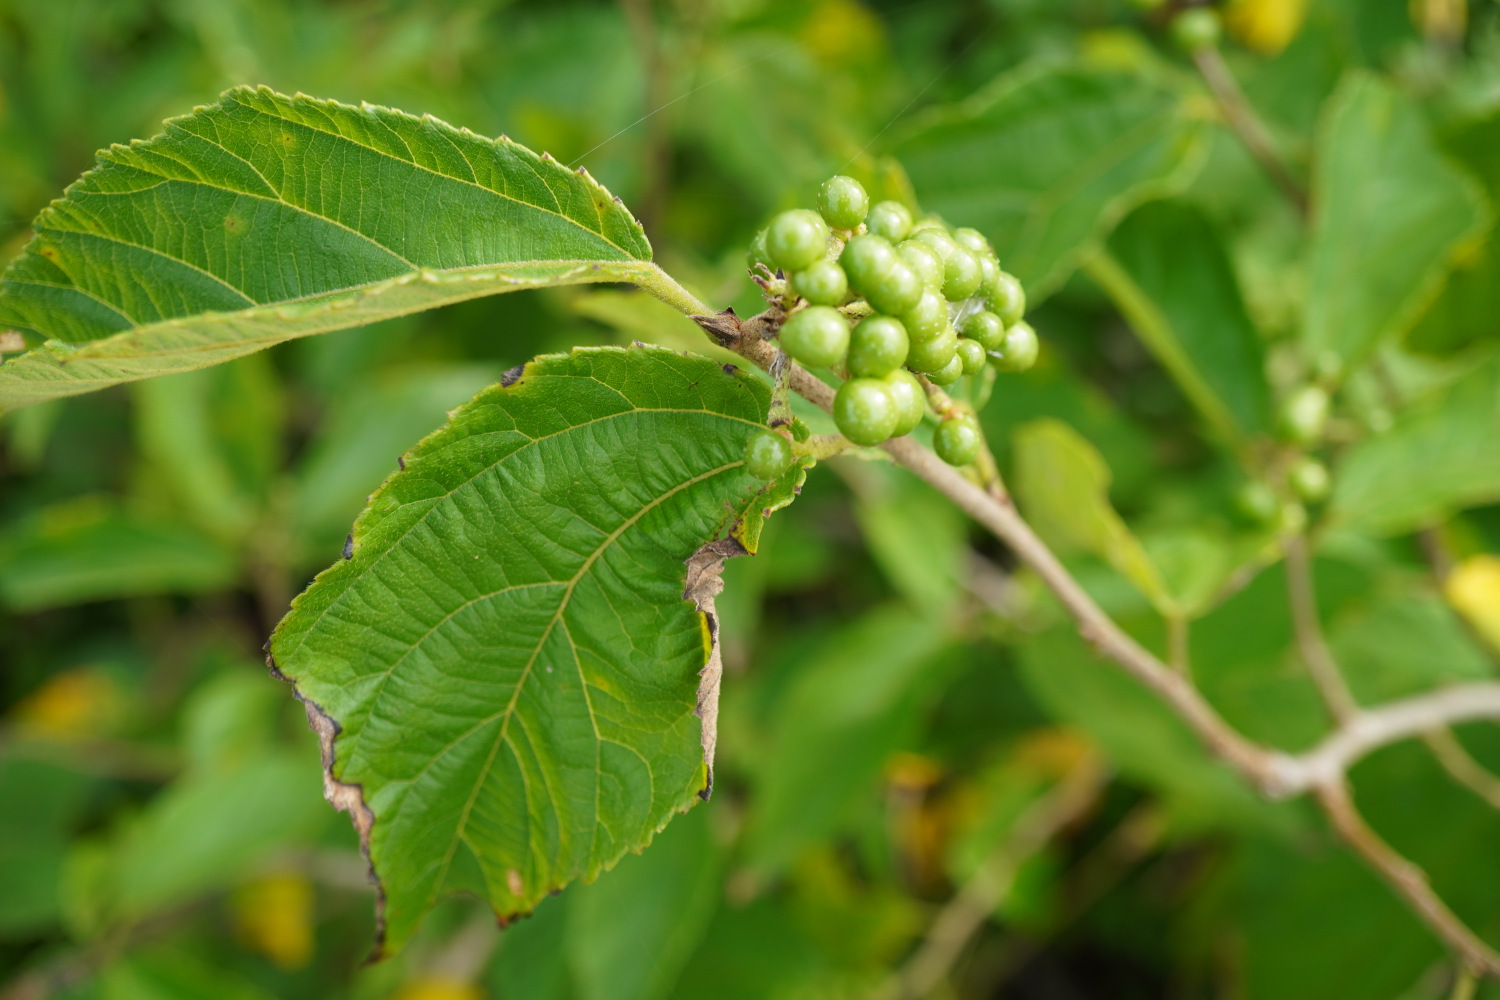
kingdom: Plantae
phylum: Tracheophyta
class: Magnoliopsida
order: Malvales
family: Malvaceae
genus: Grewia
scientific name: Grewia biloba
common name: Bilobed grewia
